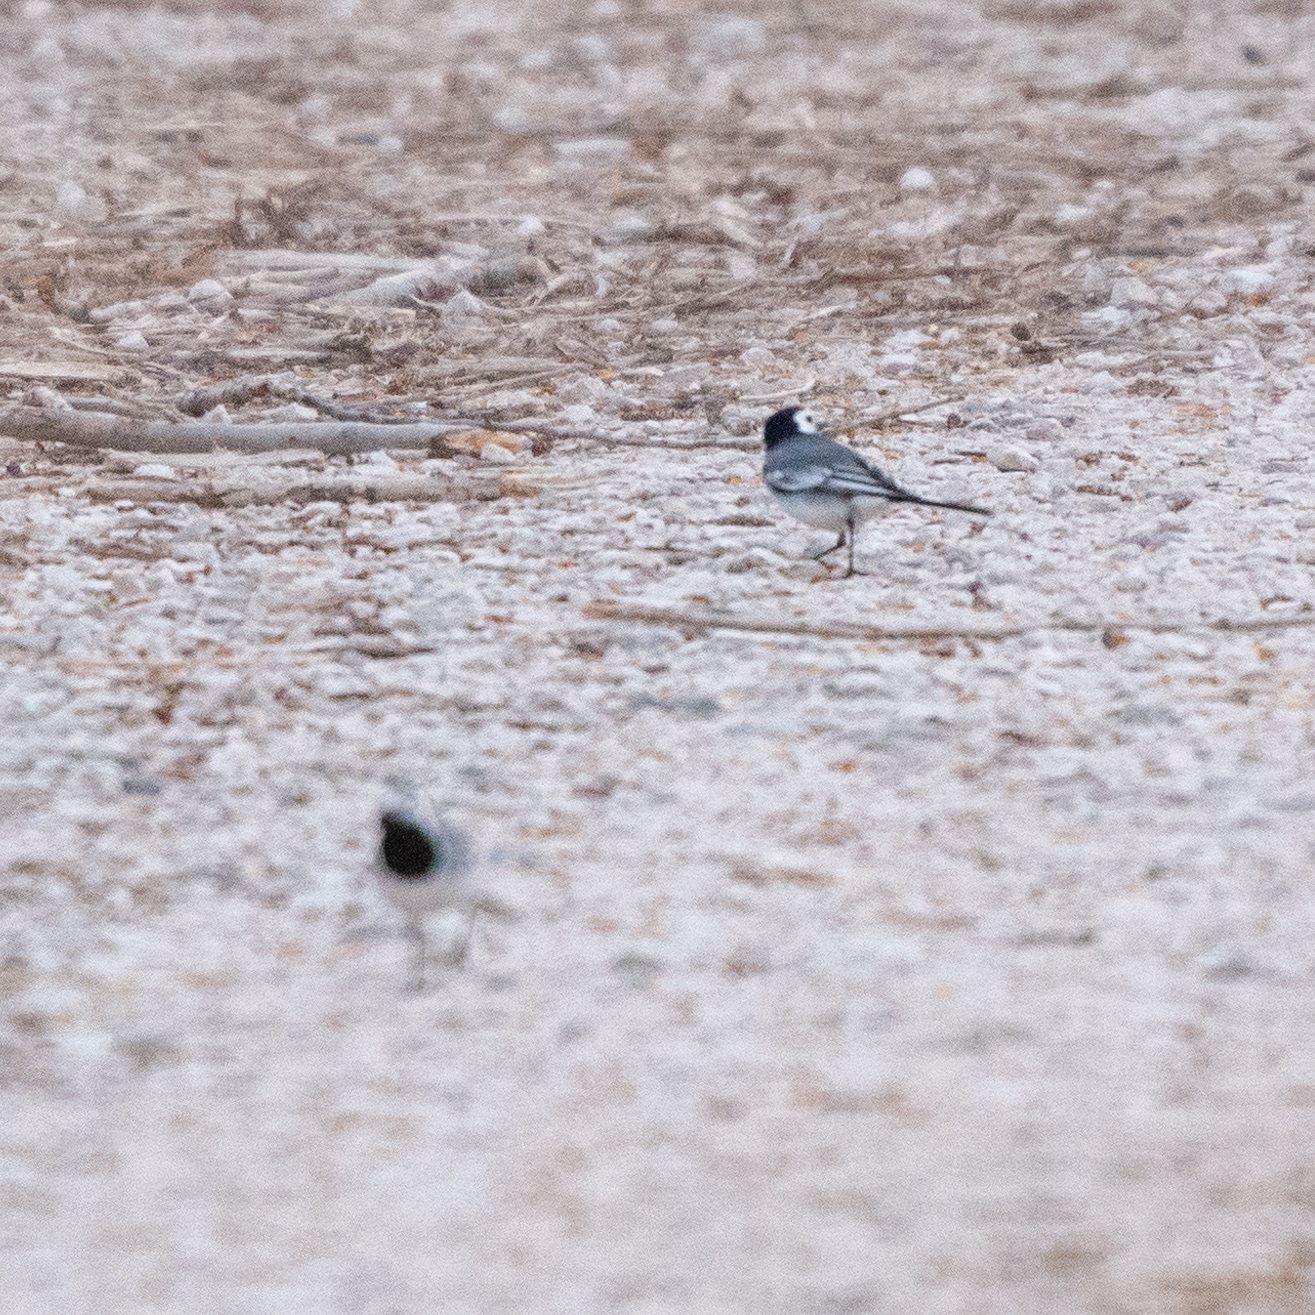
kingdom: Animalia
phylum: Chordata
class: Aves
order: Passeriformes
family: Motacillidae
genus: Motacilla
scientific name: Motacilla alba
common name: White wagtail
